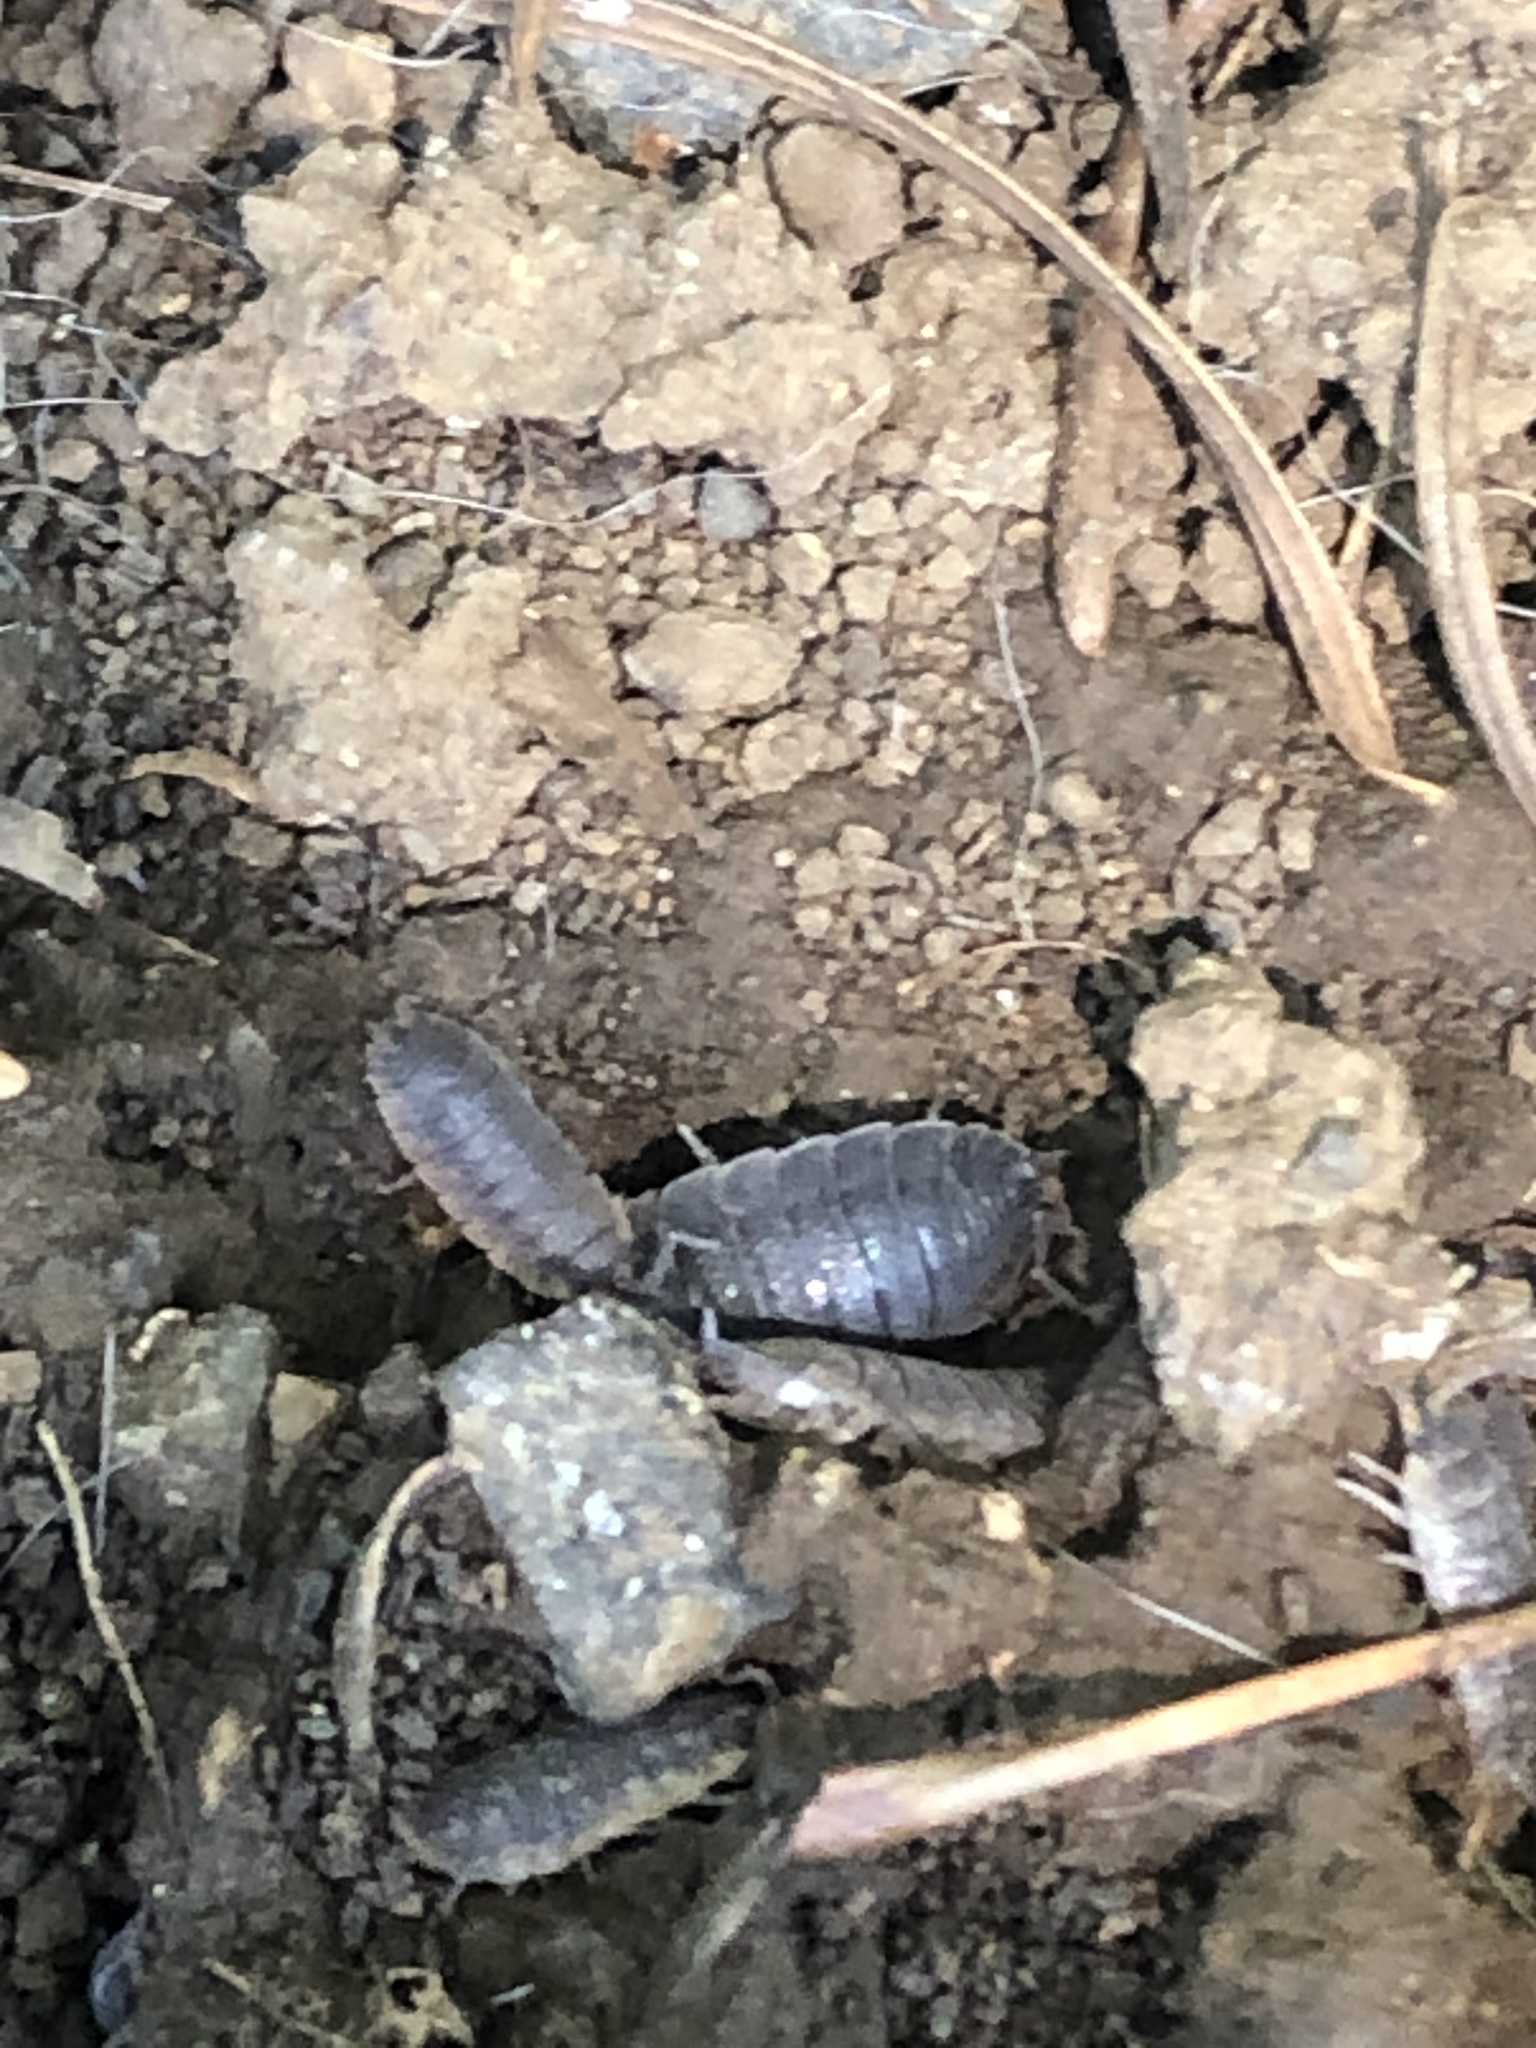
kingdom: Animalia
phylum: Arthropoda
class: Malacostraca
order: Isopoda
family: Porcellionidae
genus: Porcellio
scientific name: Porcellio scaber
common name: Common rough woodlouse
